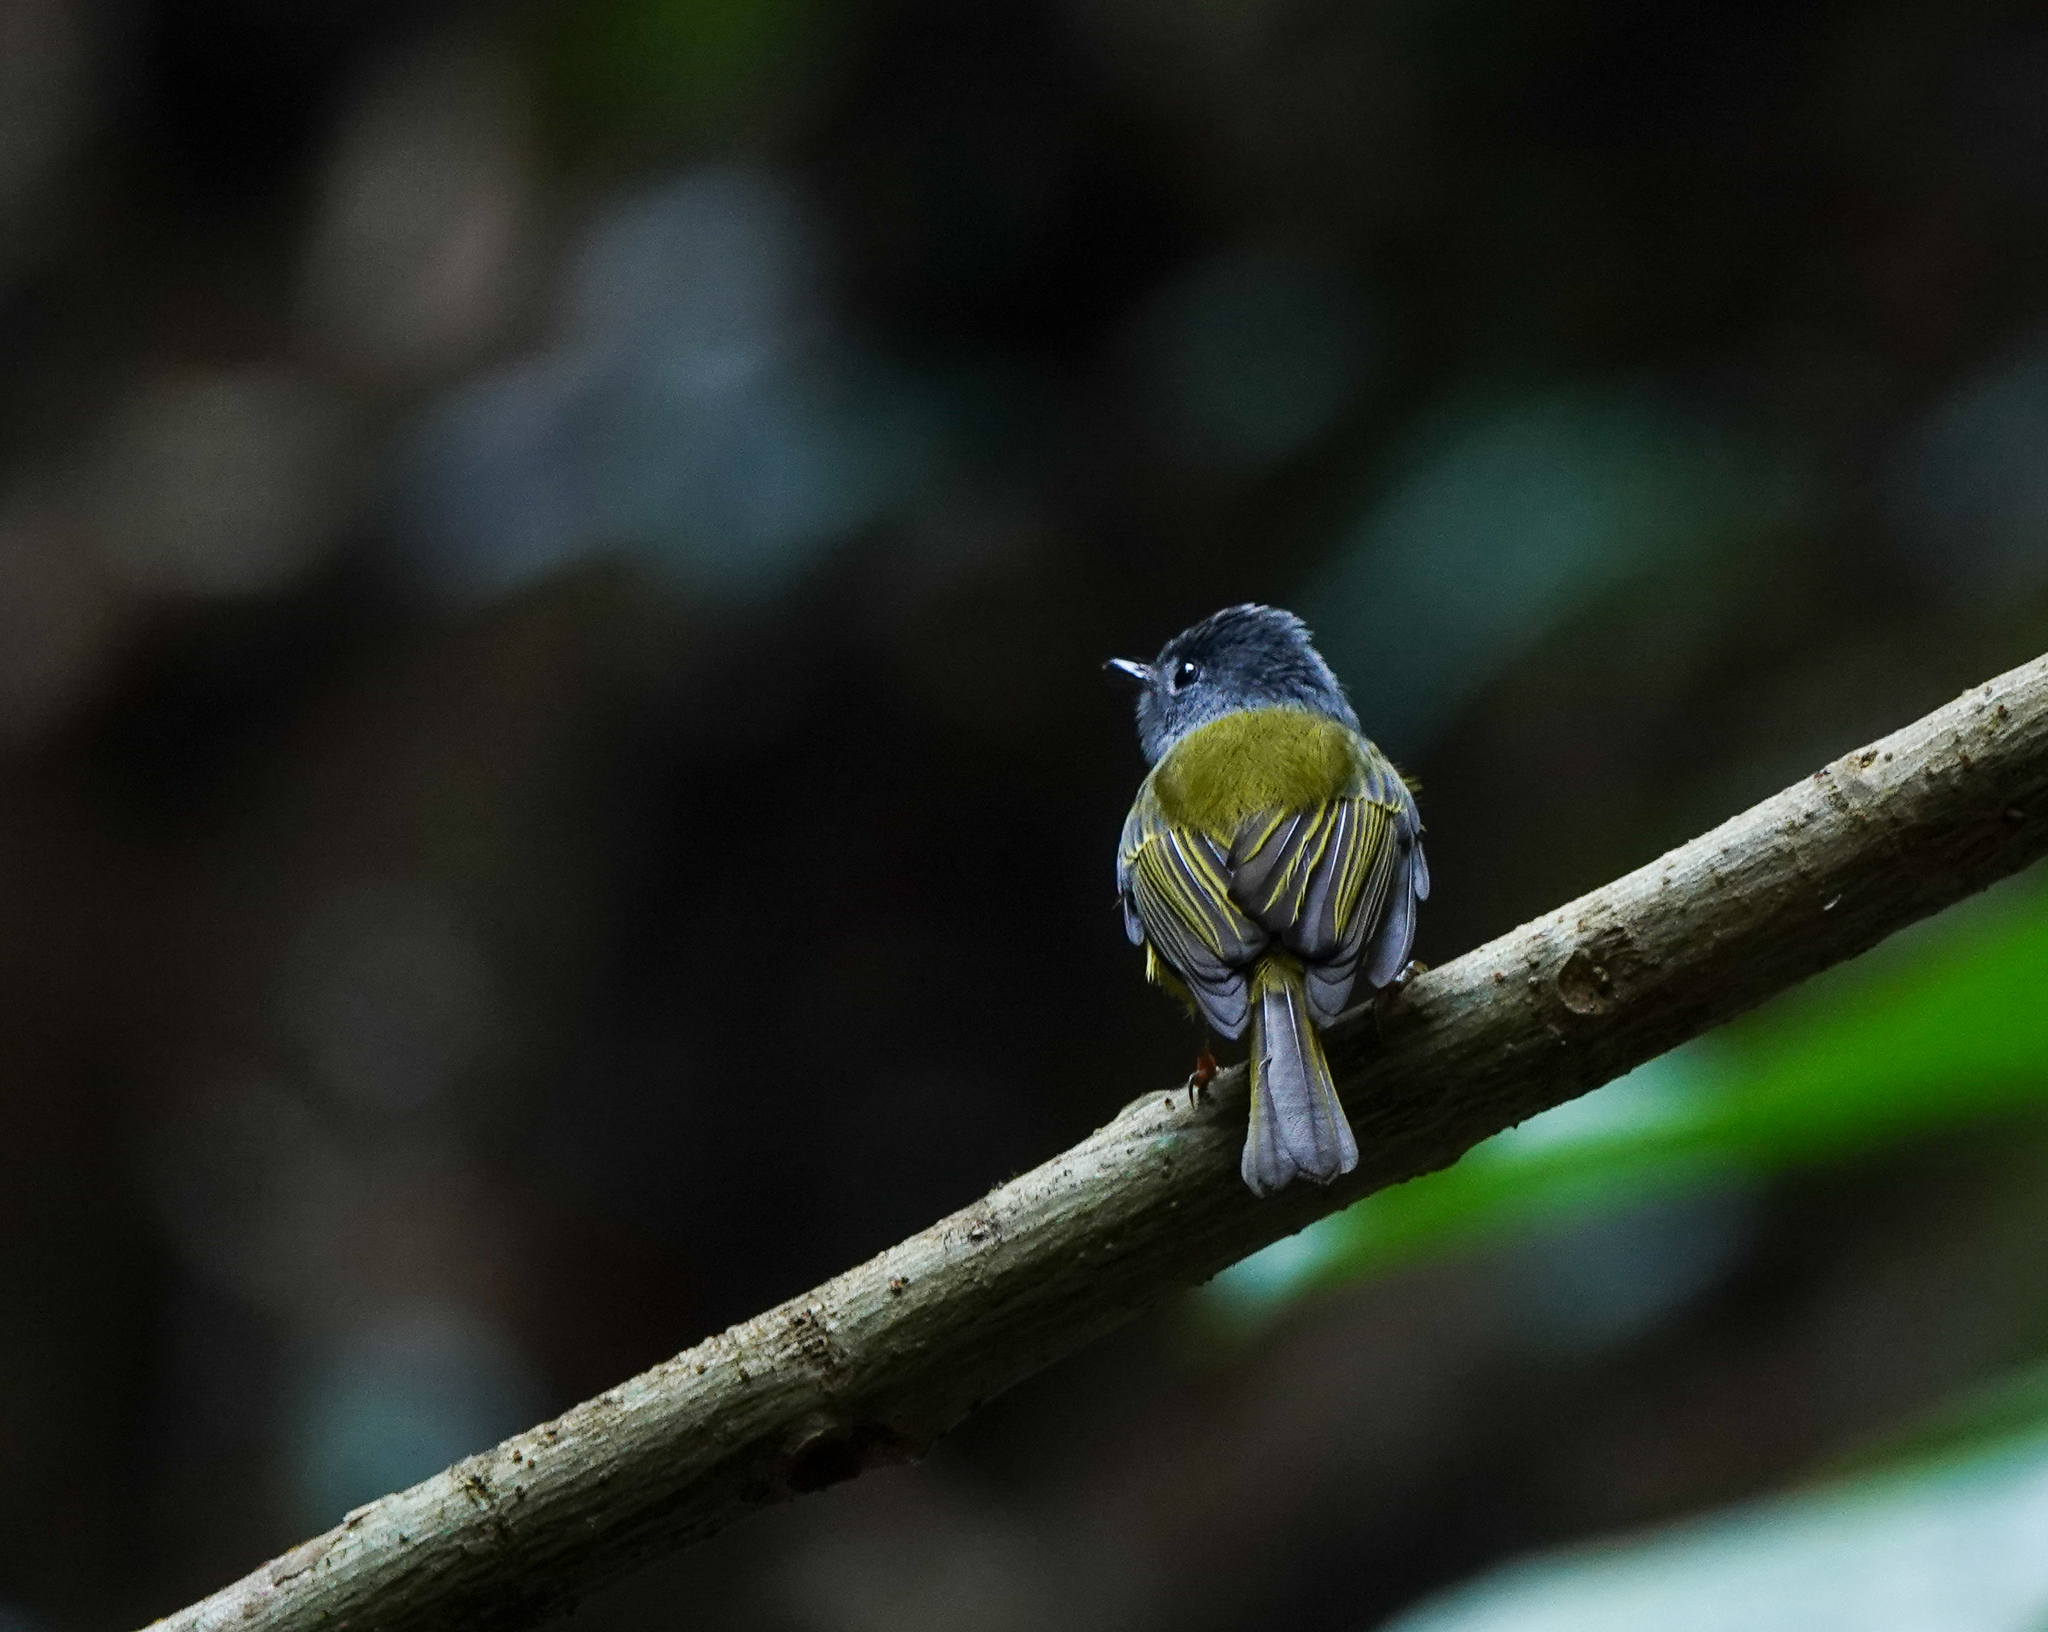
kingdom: Animalia
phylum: Chordata
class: Aves
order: Passeriformes
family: Stenostiridae
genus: Culicicapa
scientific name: Culicicapa ceylonensis
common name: Grey-headed canary-flycatcher
